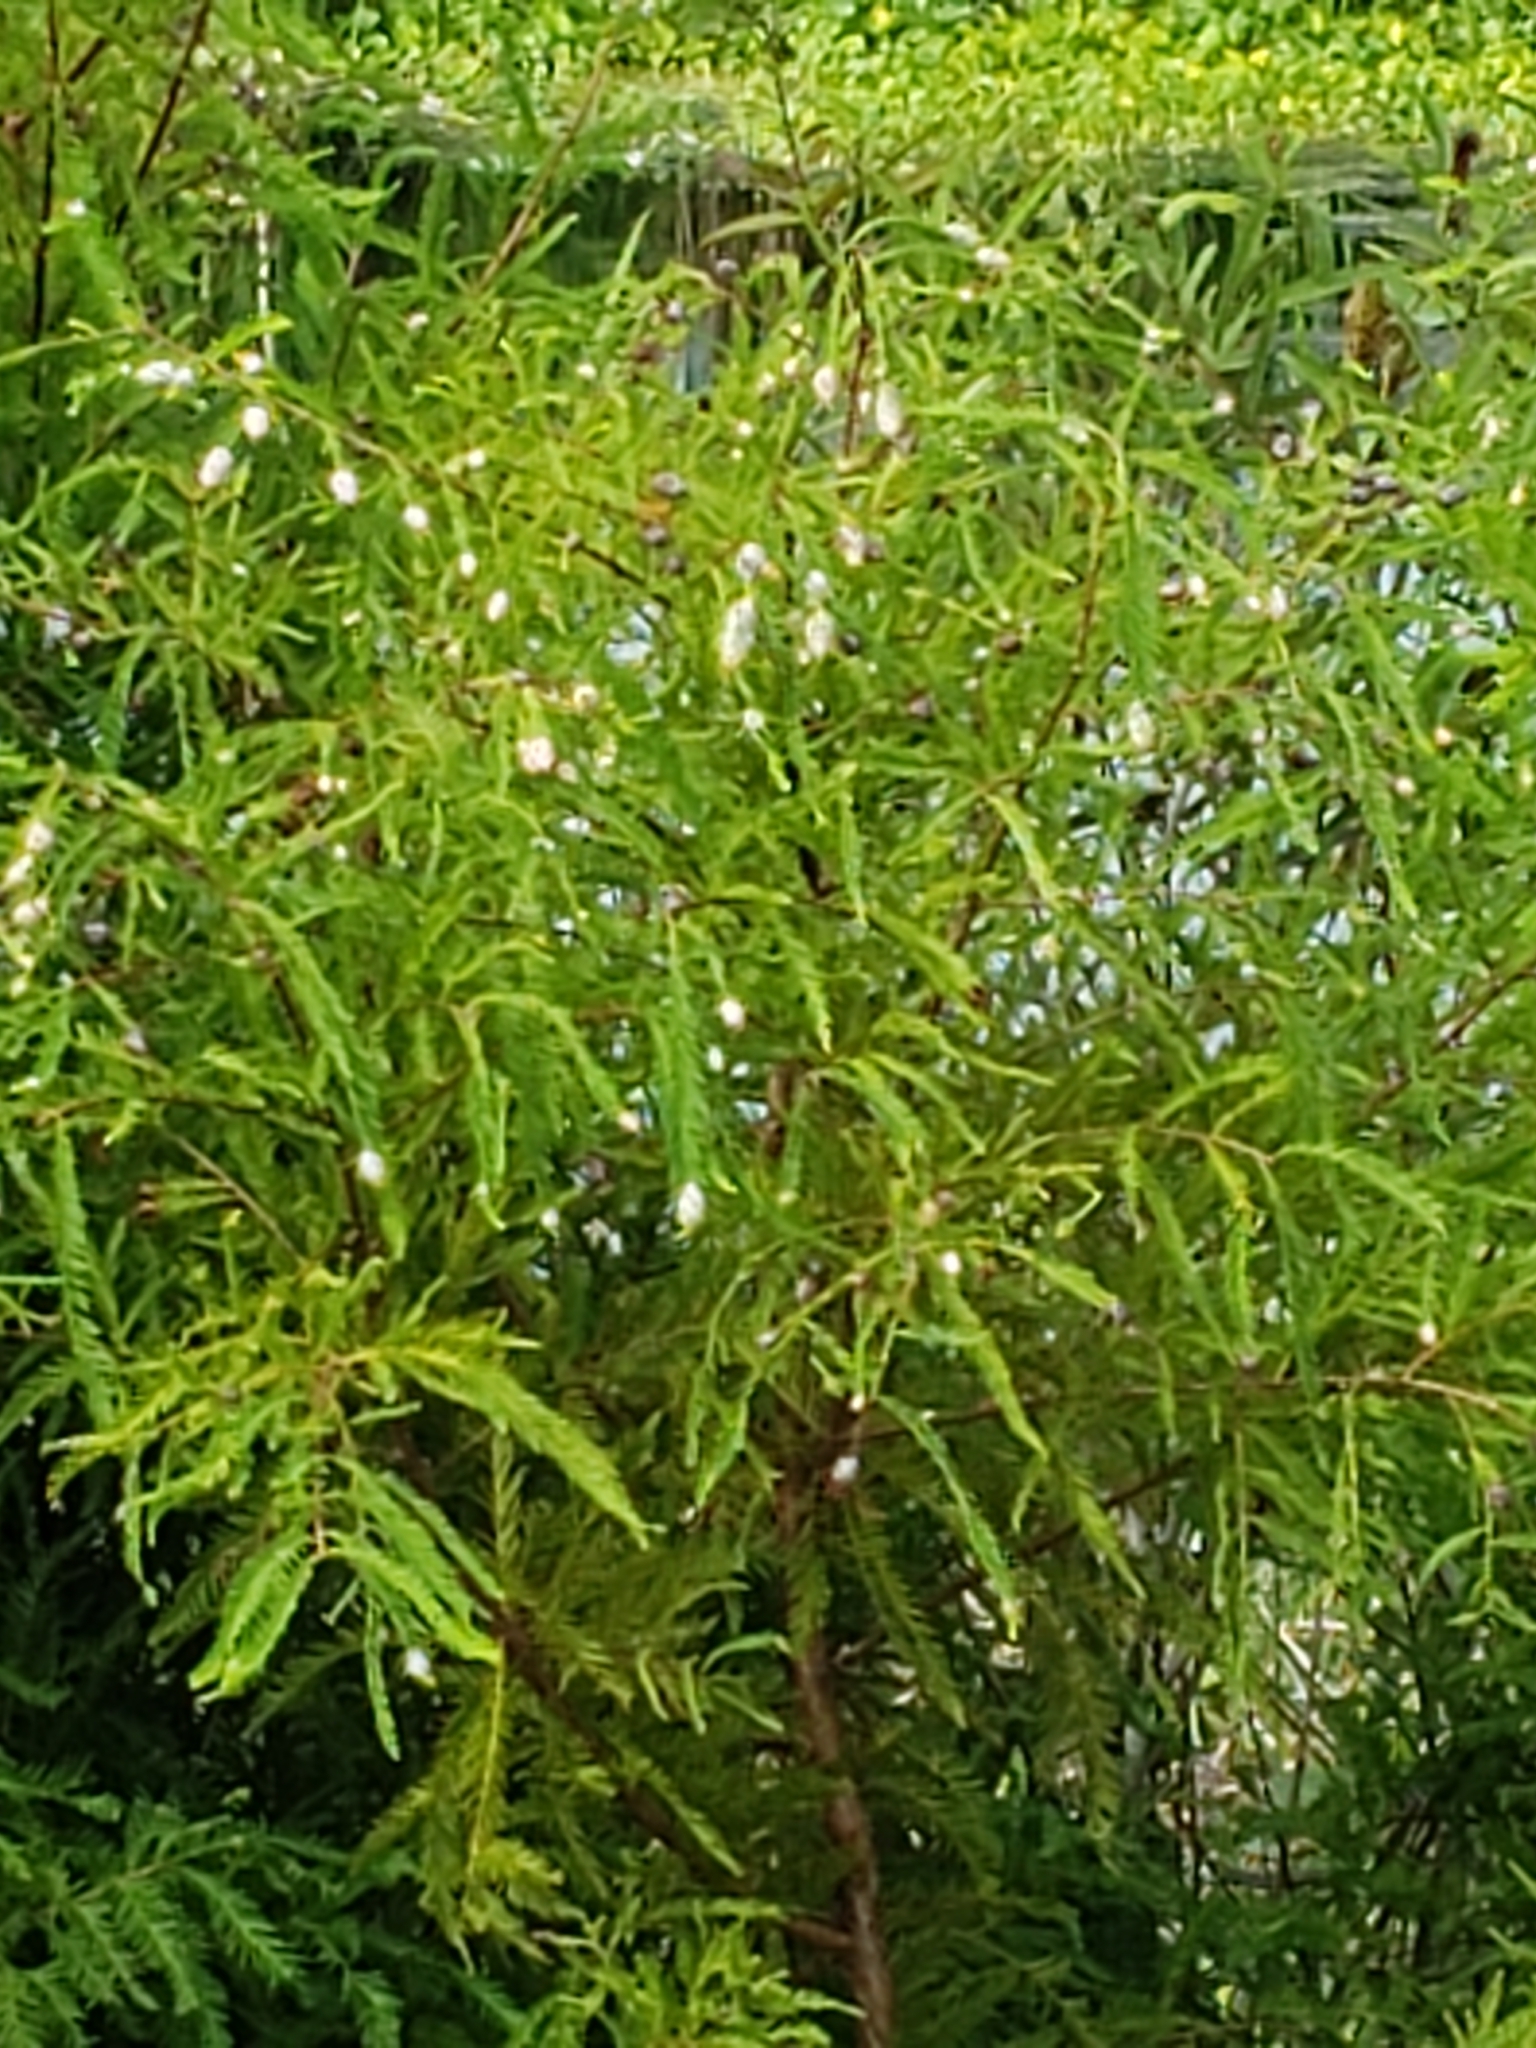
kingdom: Animalia
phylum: Arthropoda
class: Insecta
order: Diptera
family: Cecidomyiidae
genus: Taxodiomyia
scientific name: Taxodiomyia cupressiananassa
